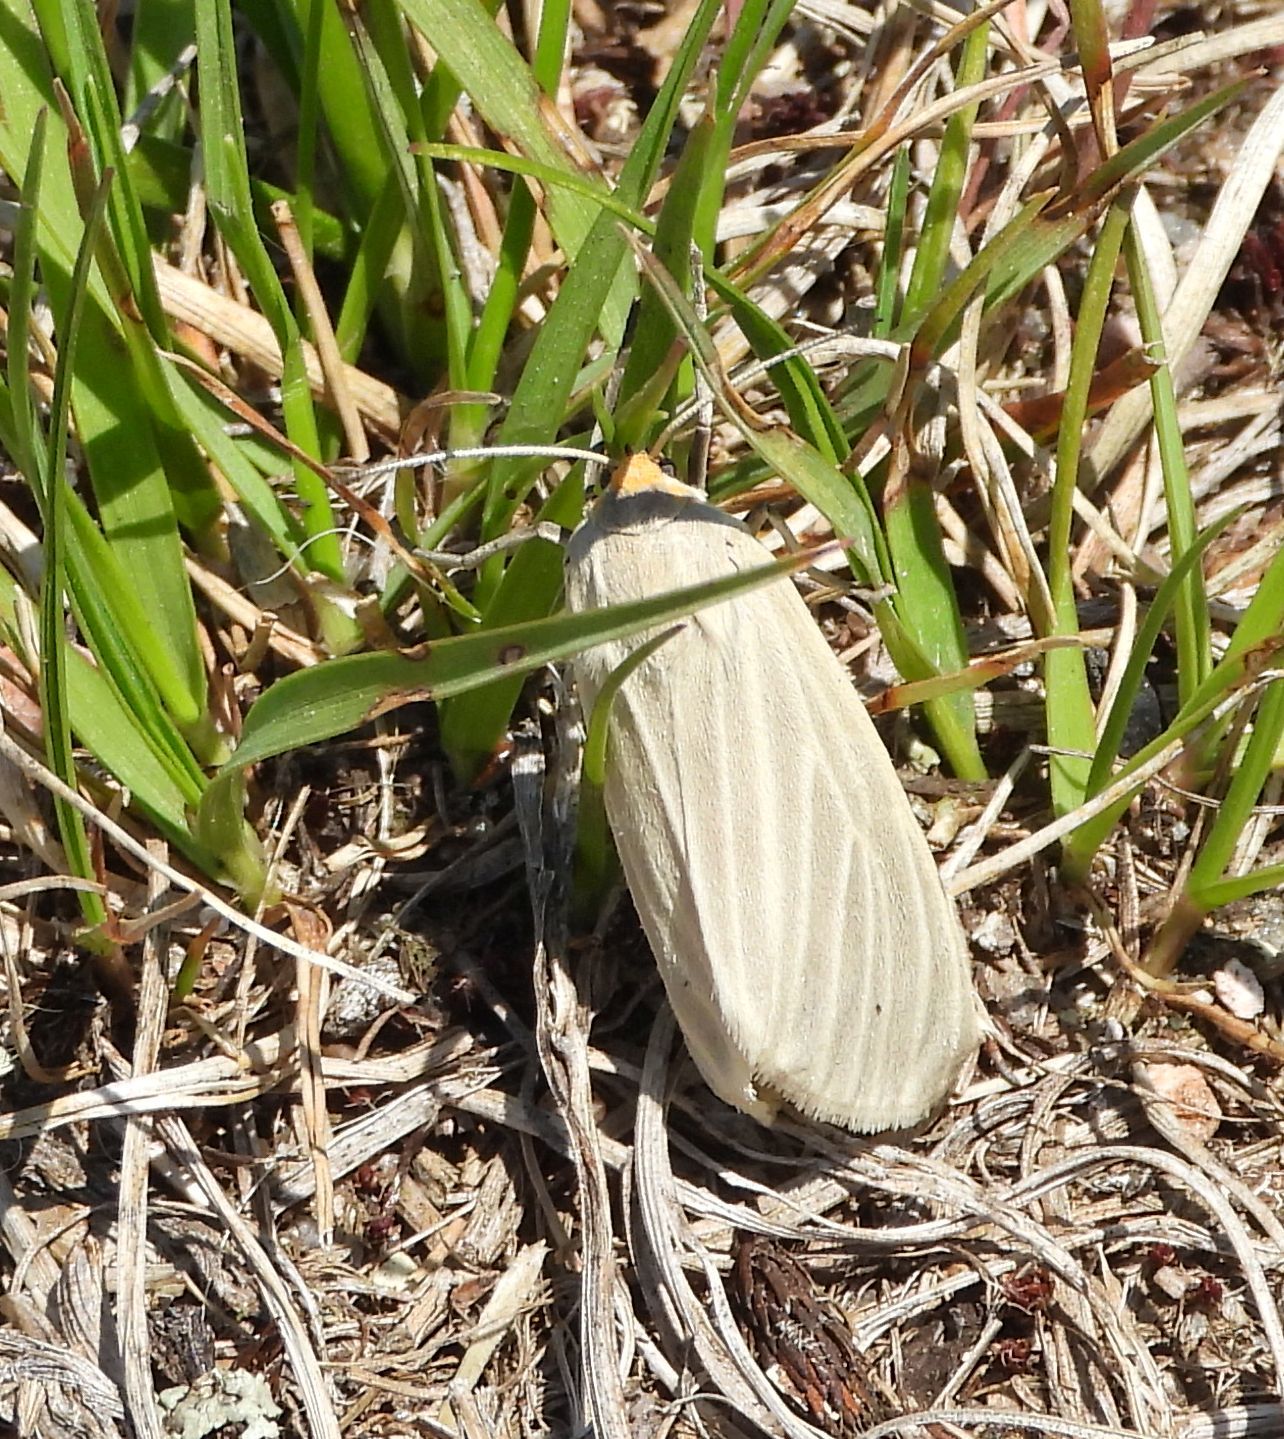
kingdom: Animalia
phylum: Arthropoda
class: Insecta
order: Lepidoptera
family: Erebidae
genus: Cycnia
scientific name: Cycnia oregonensis
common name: Oregon cycnia moth
